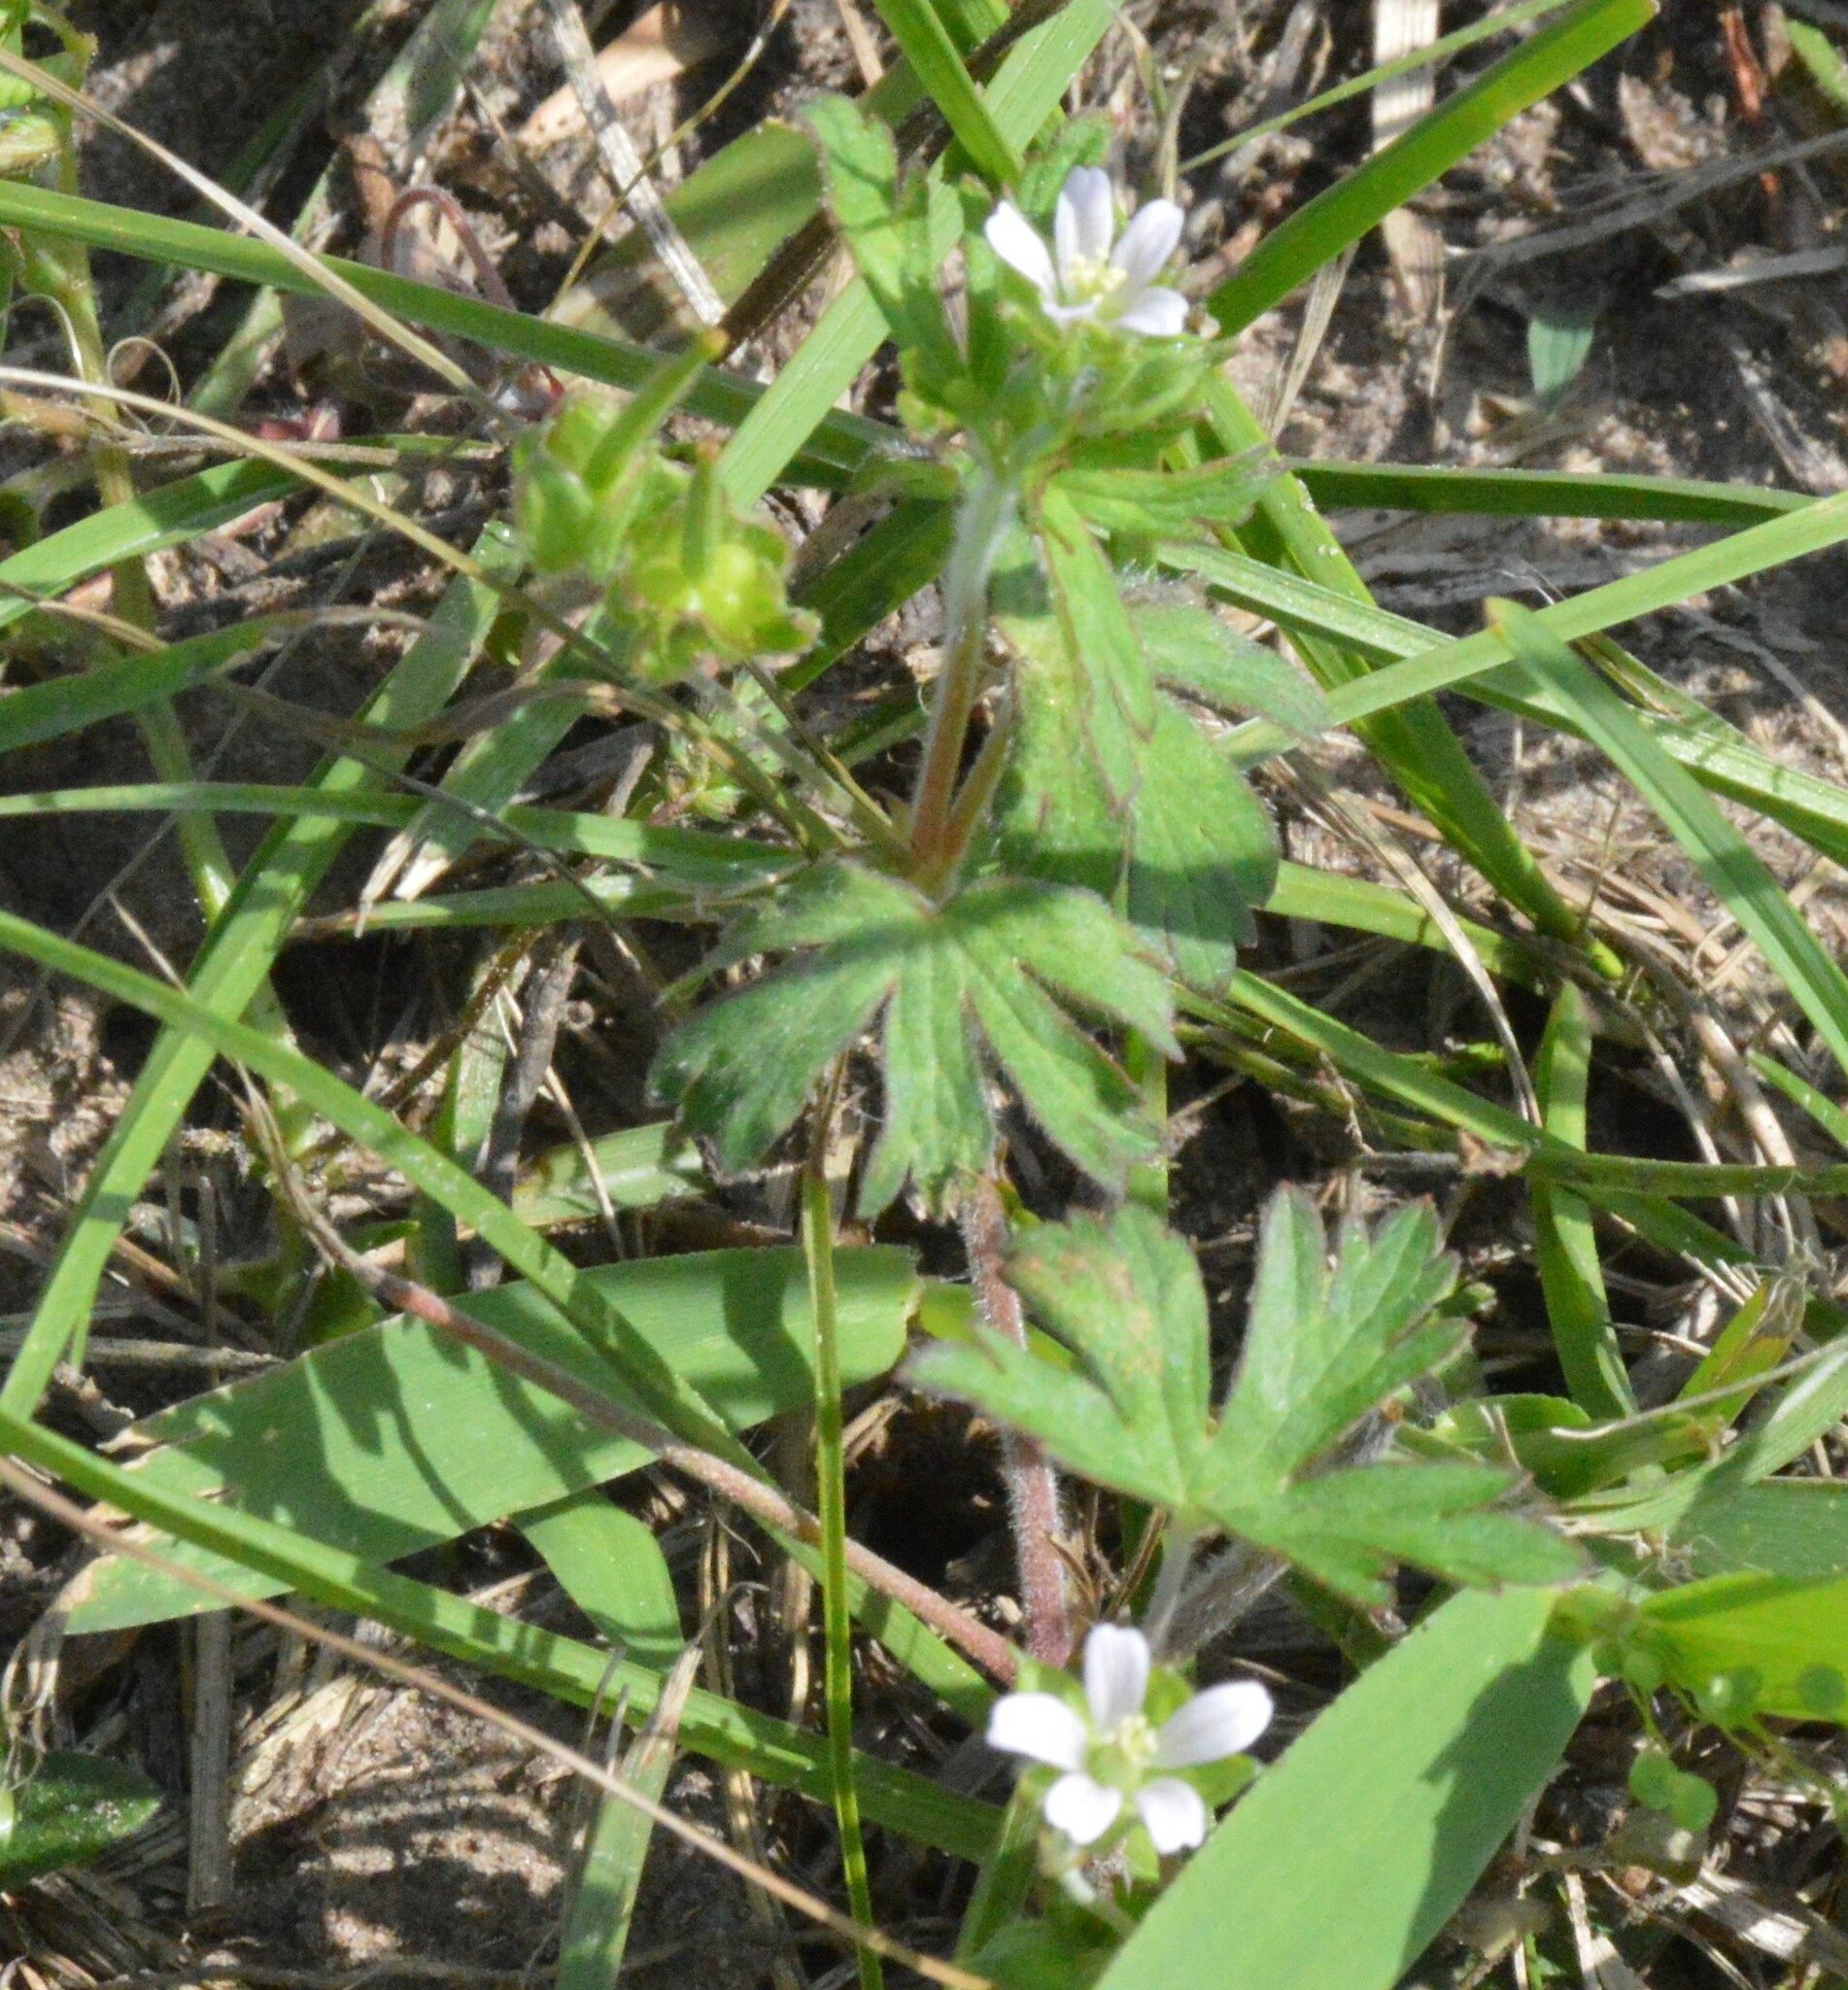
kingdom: Plantae
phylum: Tracheophyta
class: Magnoliopsida
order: Geraniales
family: Geraniaceae
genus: Geranium
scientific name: Geranium carolinianum
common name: Carolina crane's-bill
